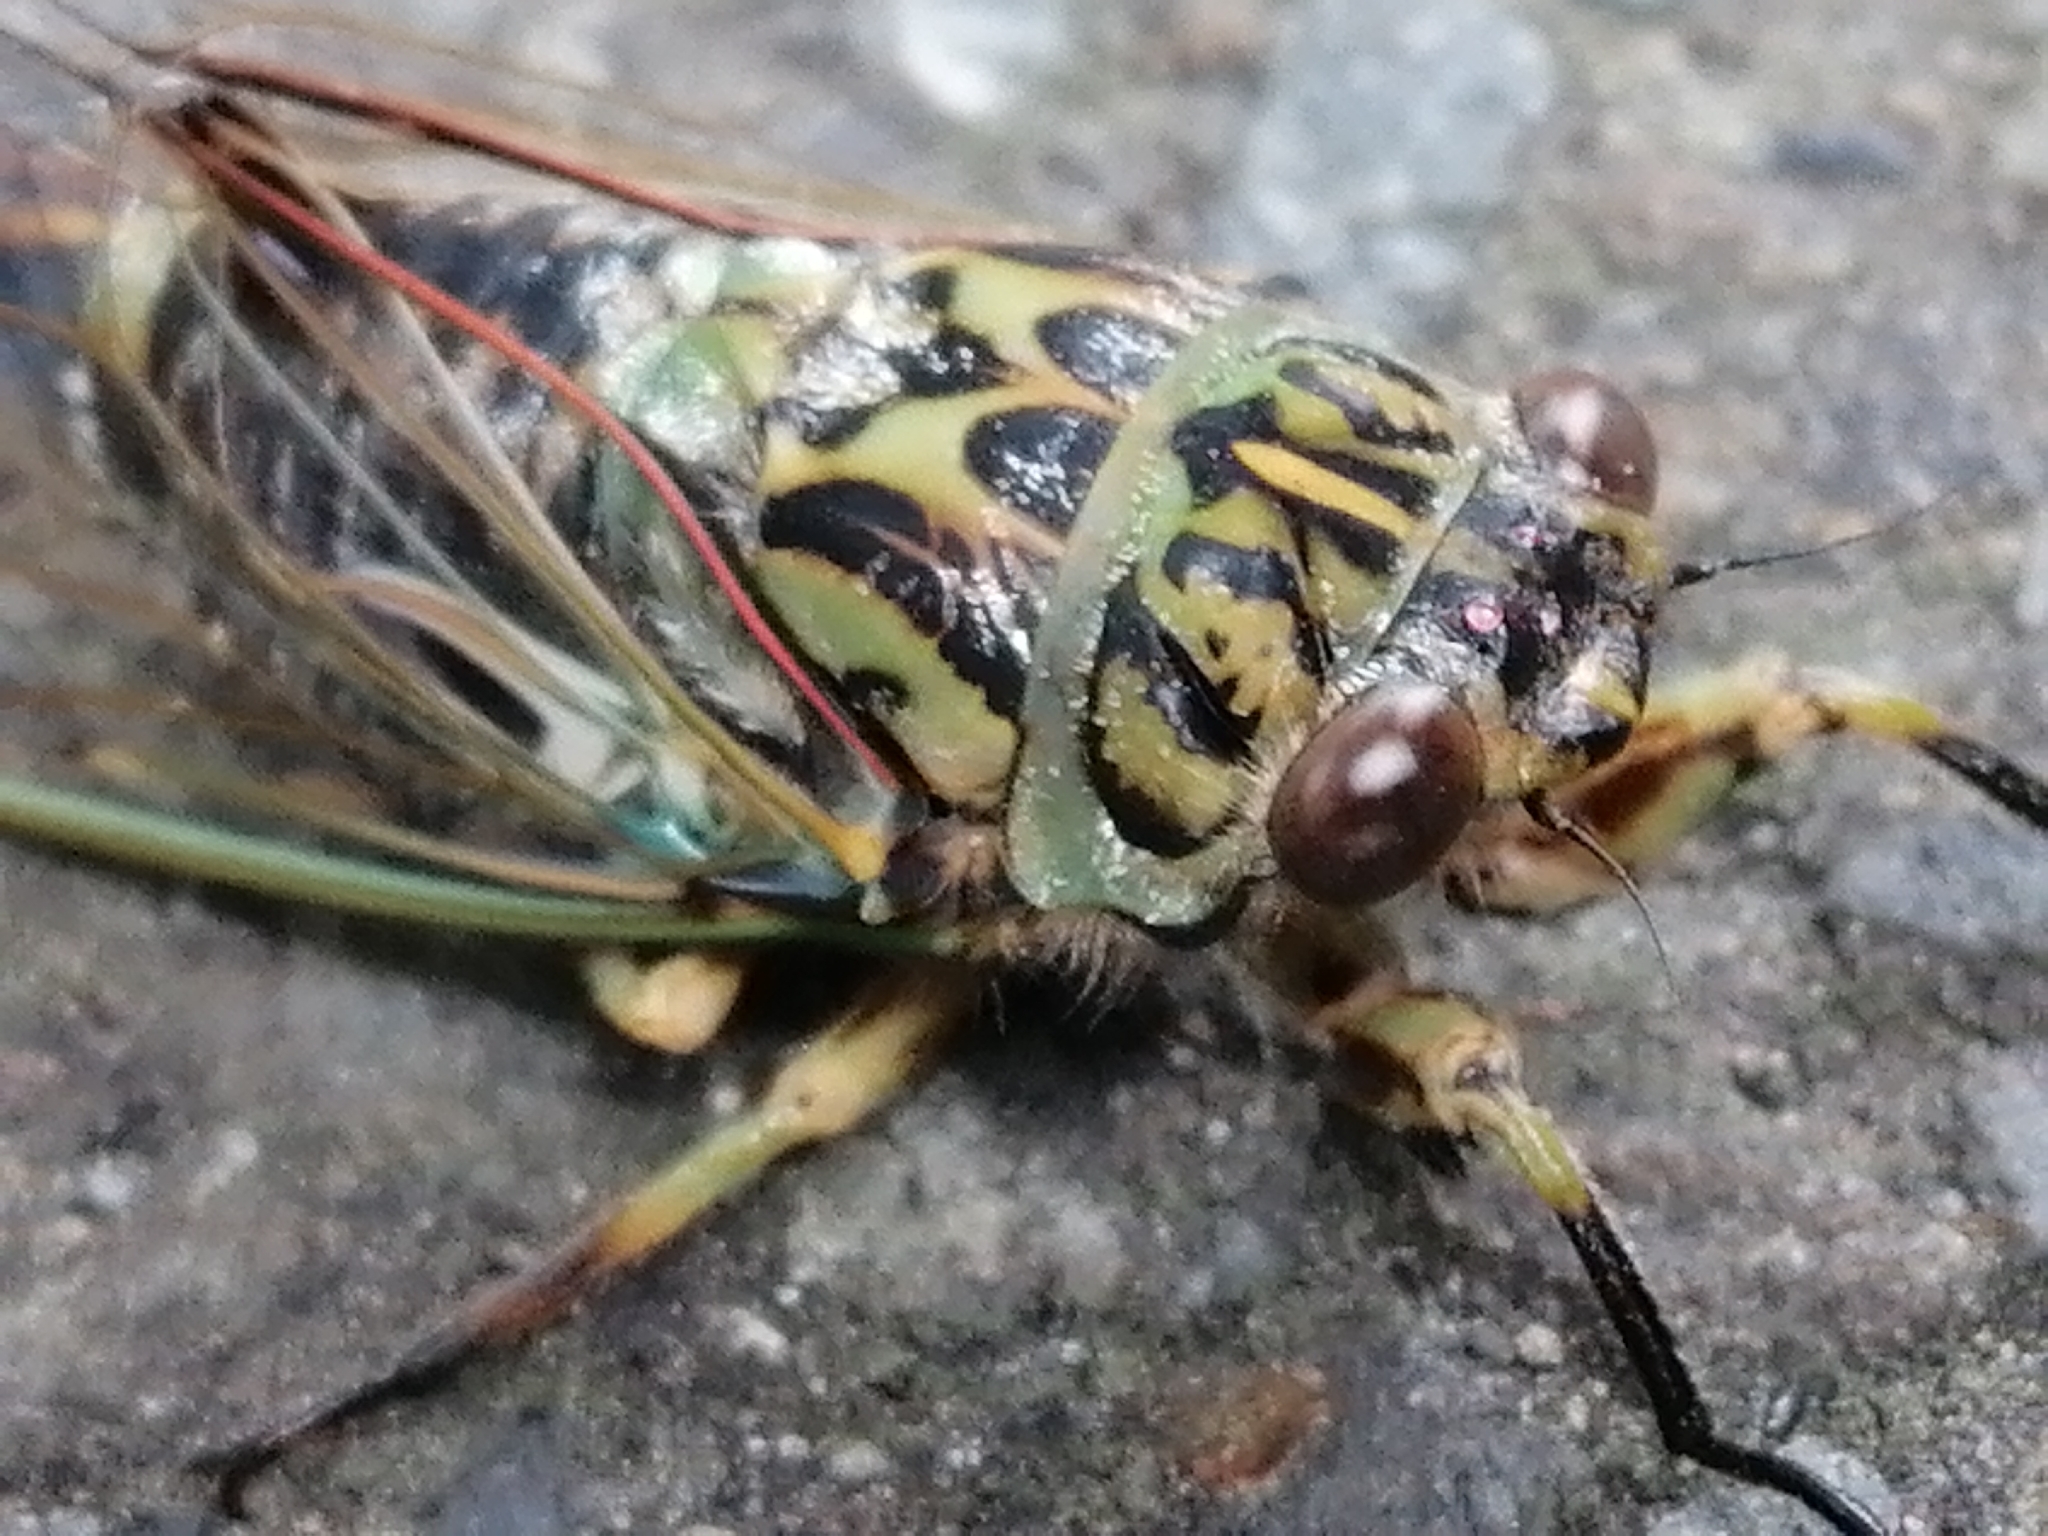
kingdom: Animalia
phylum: Arthropoda
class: Insecta
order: Hemiptera
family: Cicadidae
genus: Amphipsalta
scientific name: Amphipsalta zelandica
